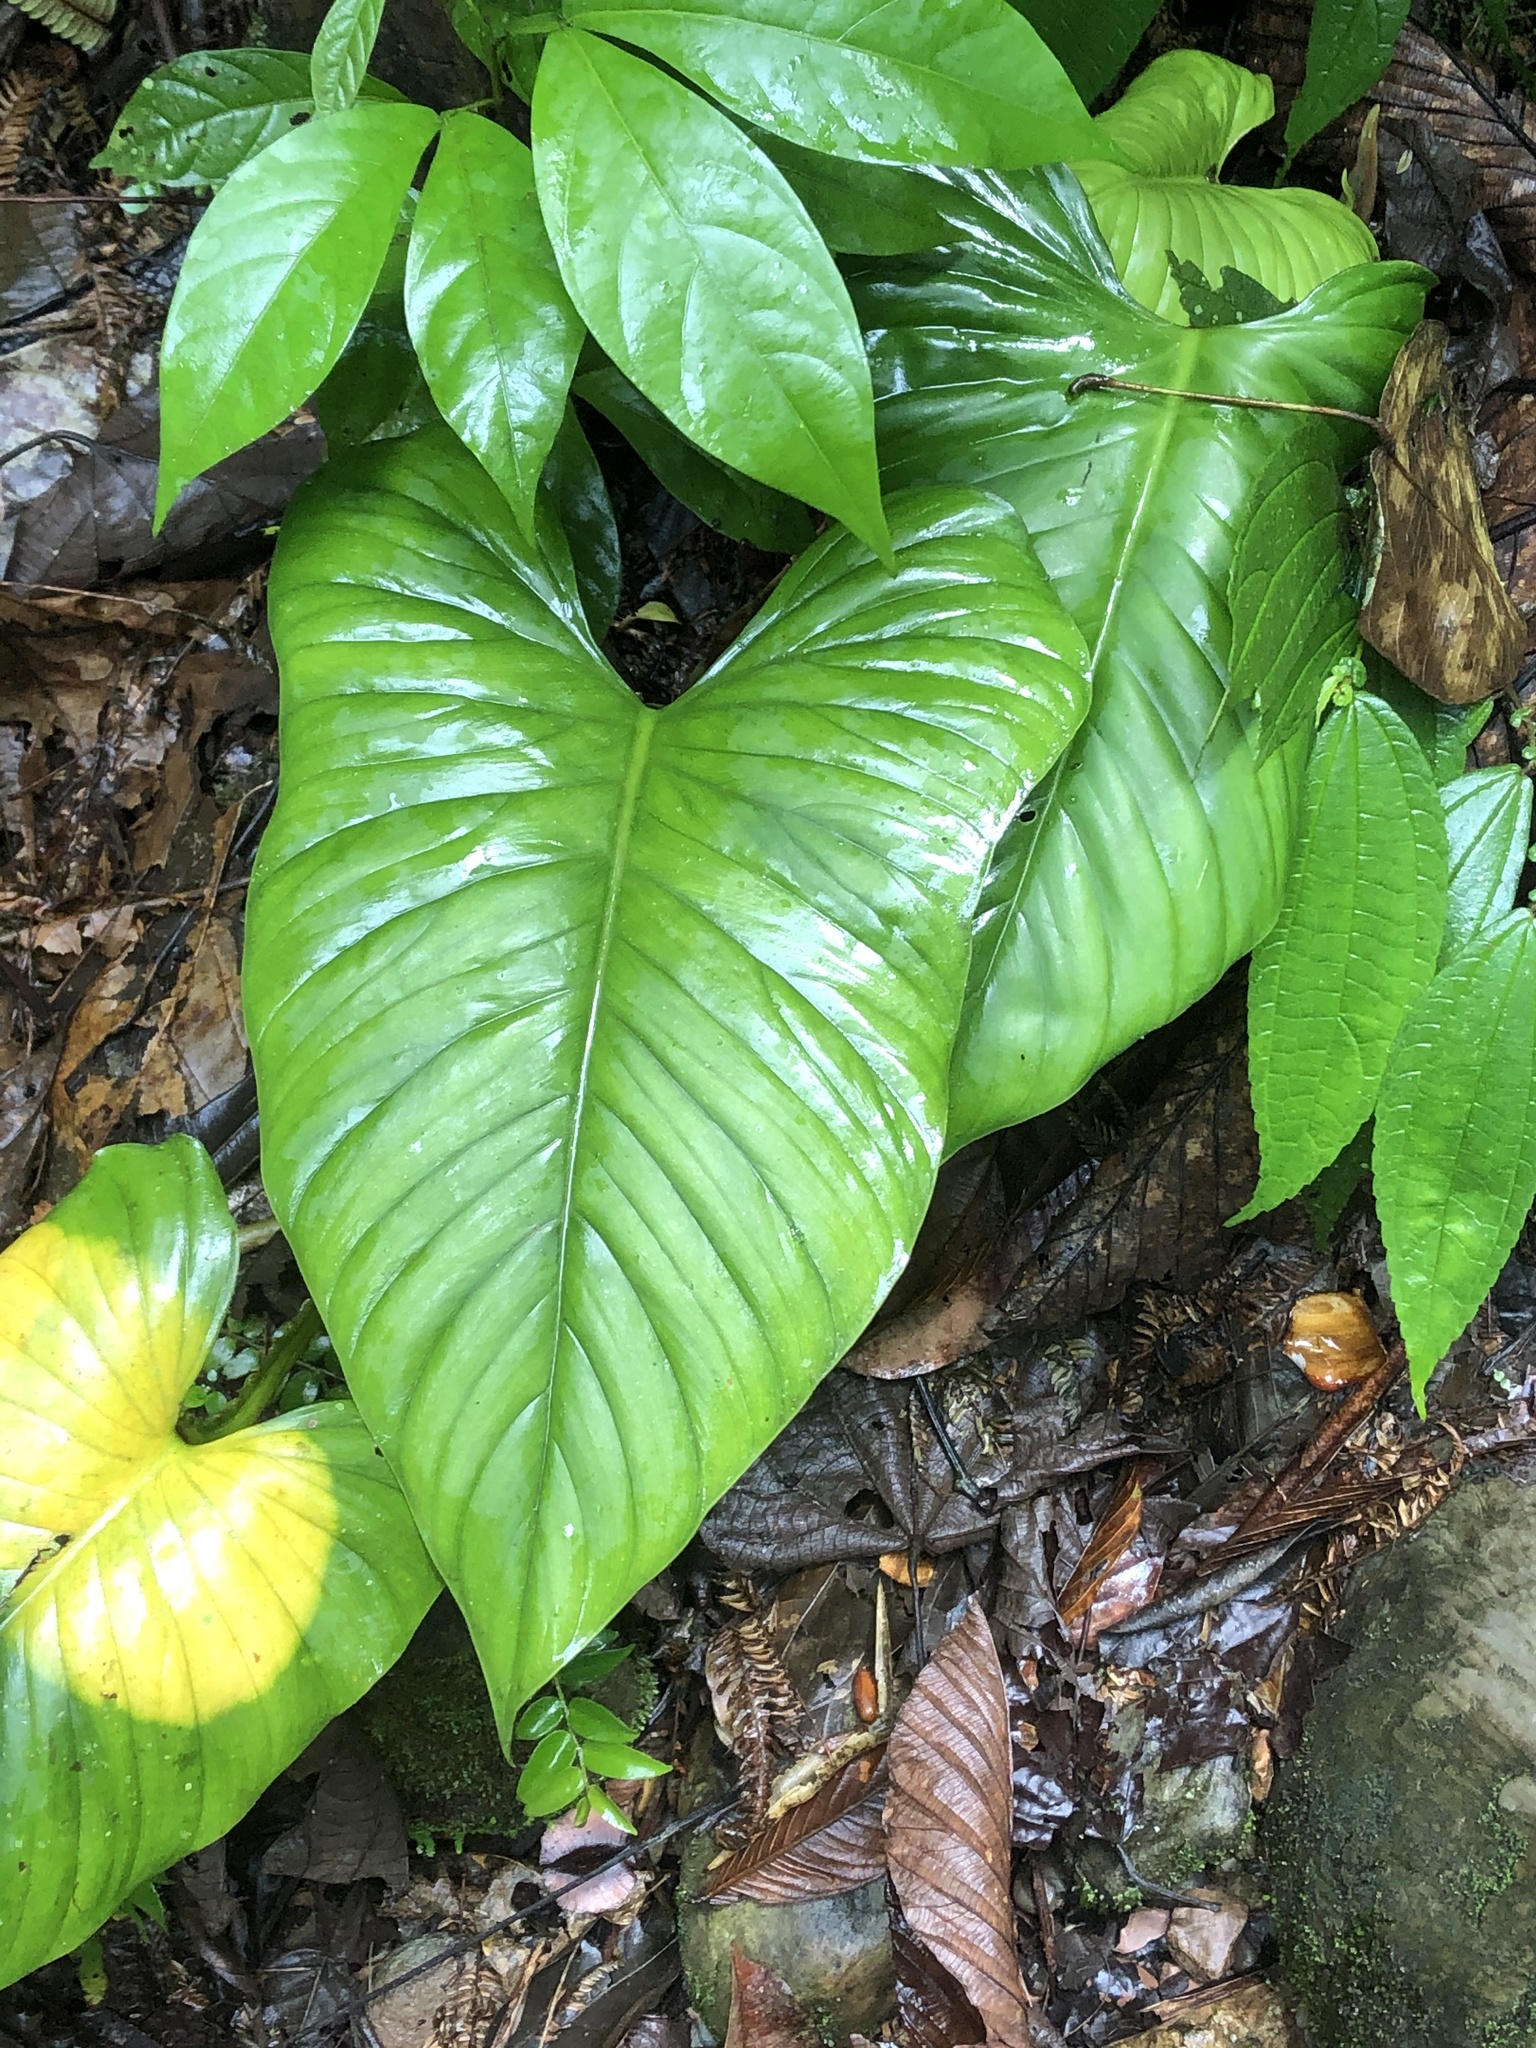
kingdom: Plantae
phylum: Tracheophyta
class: Liliopsida
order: Alismatales
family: Araceae
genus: Philodendron
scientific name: Philodendron ernestii
